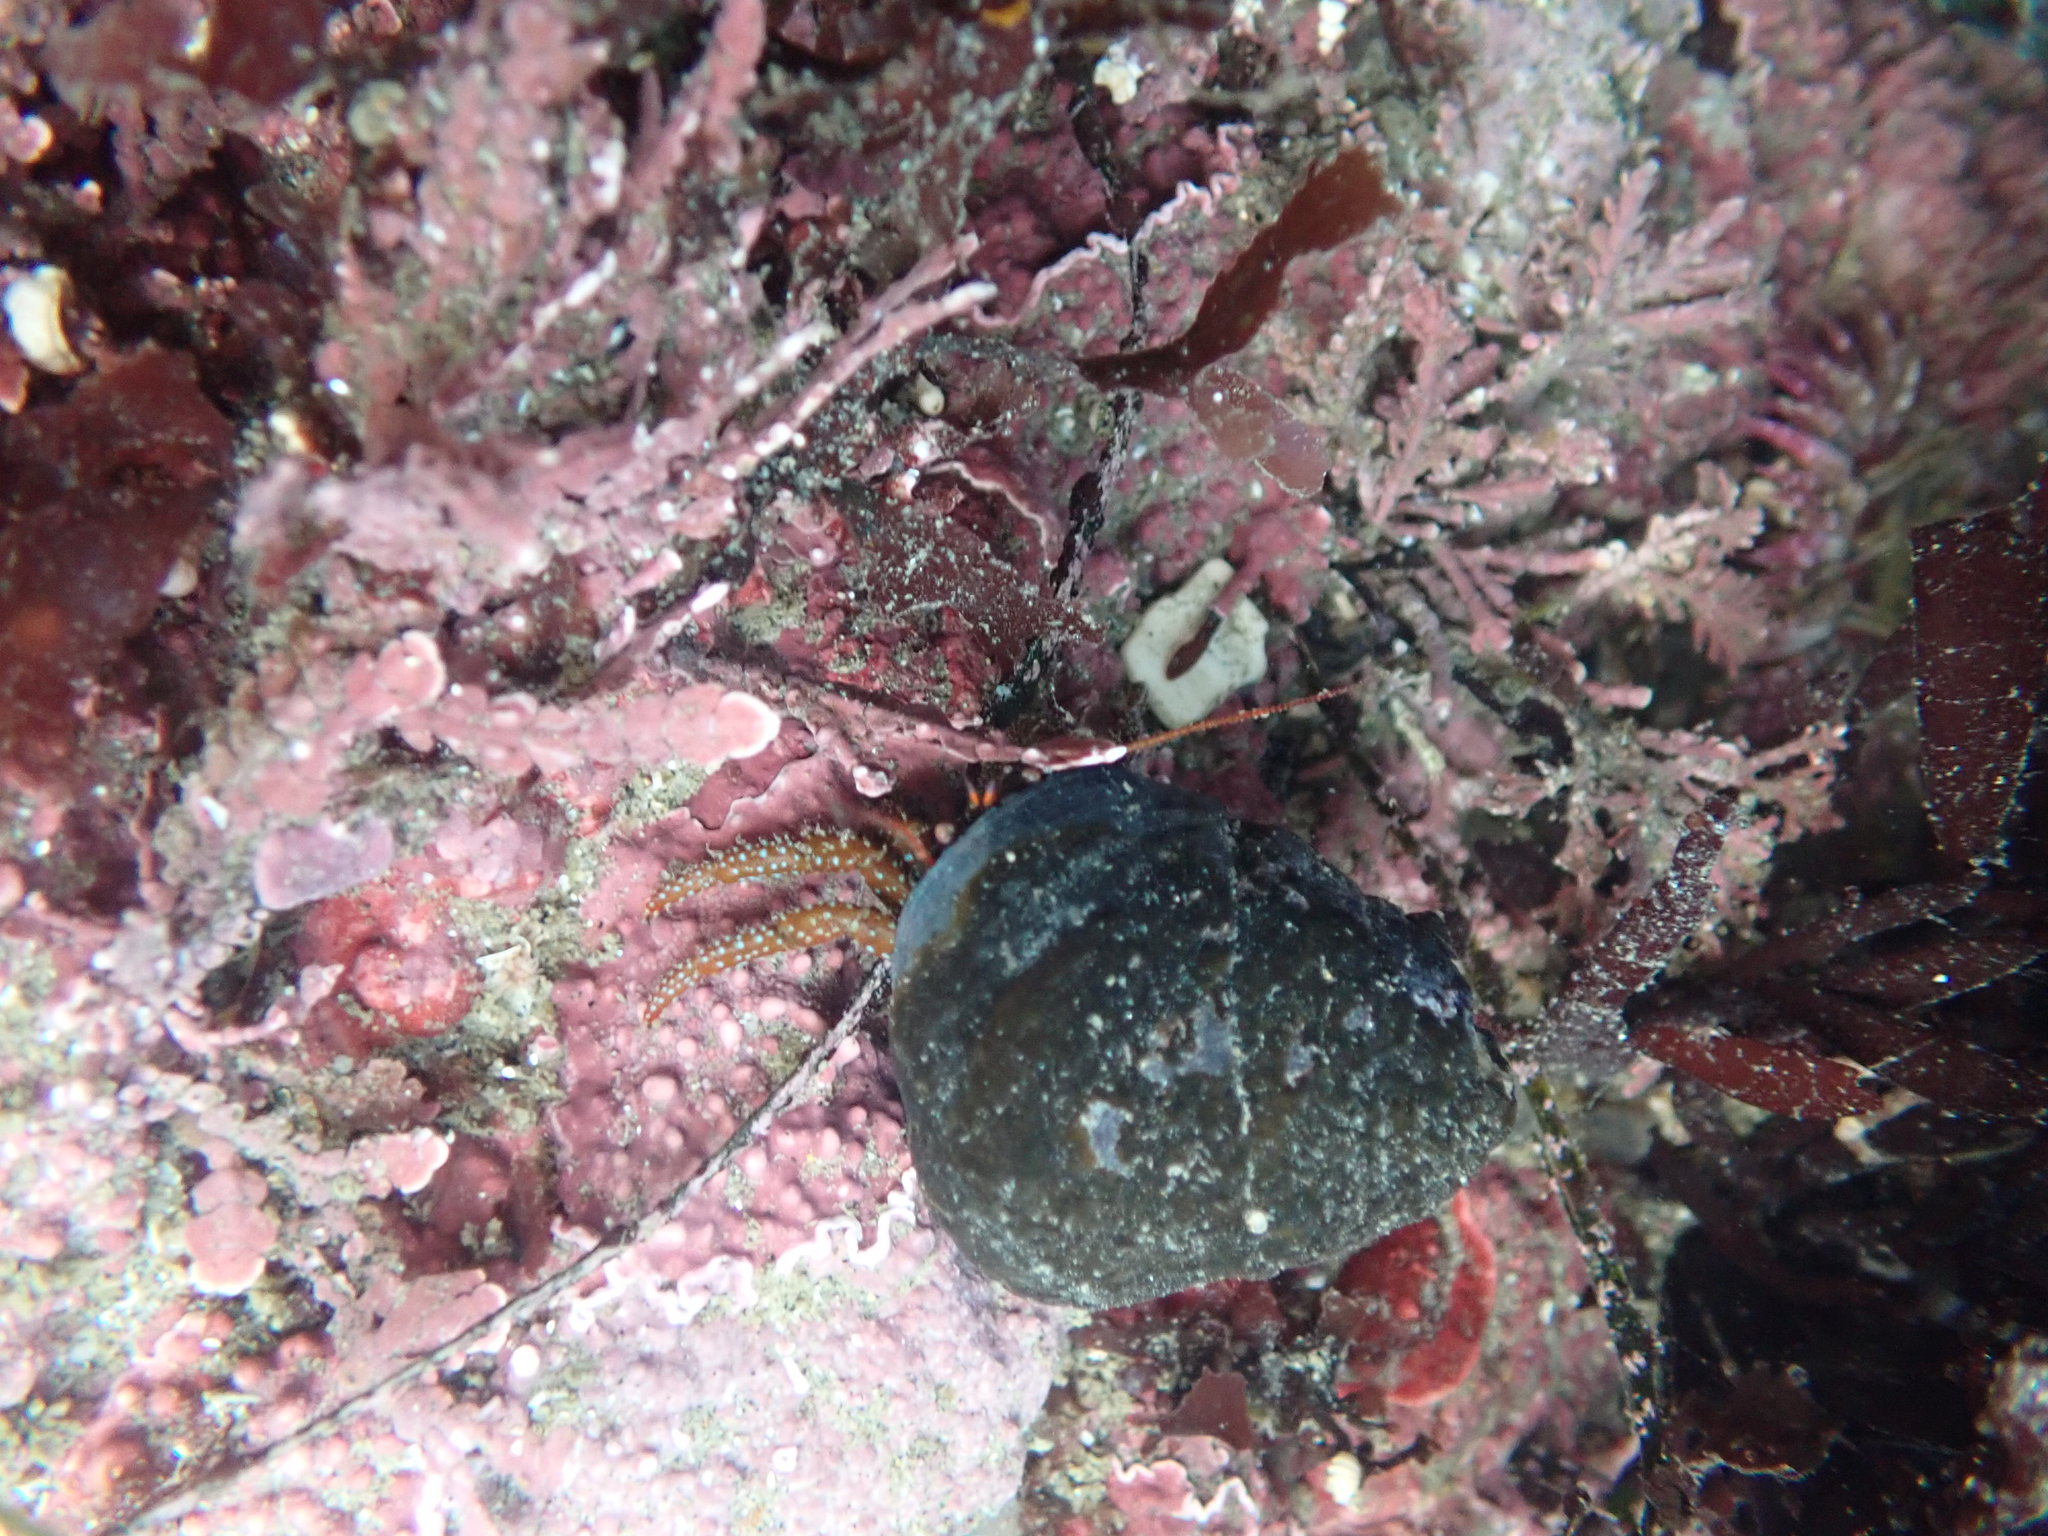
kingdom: Animalia
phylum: Arthropoda
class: Malacostraca
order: Decapoda
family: Paguridae
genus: Pagurus
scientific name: Pagurus granosimanus
